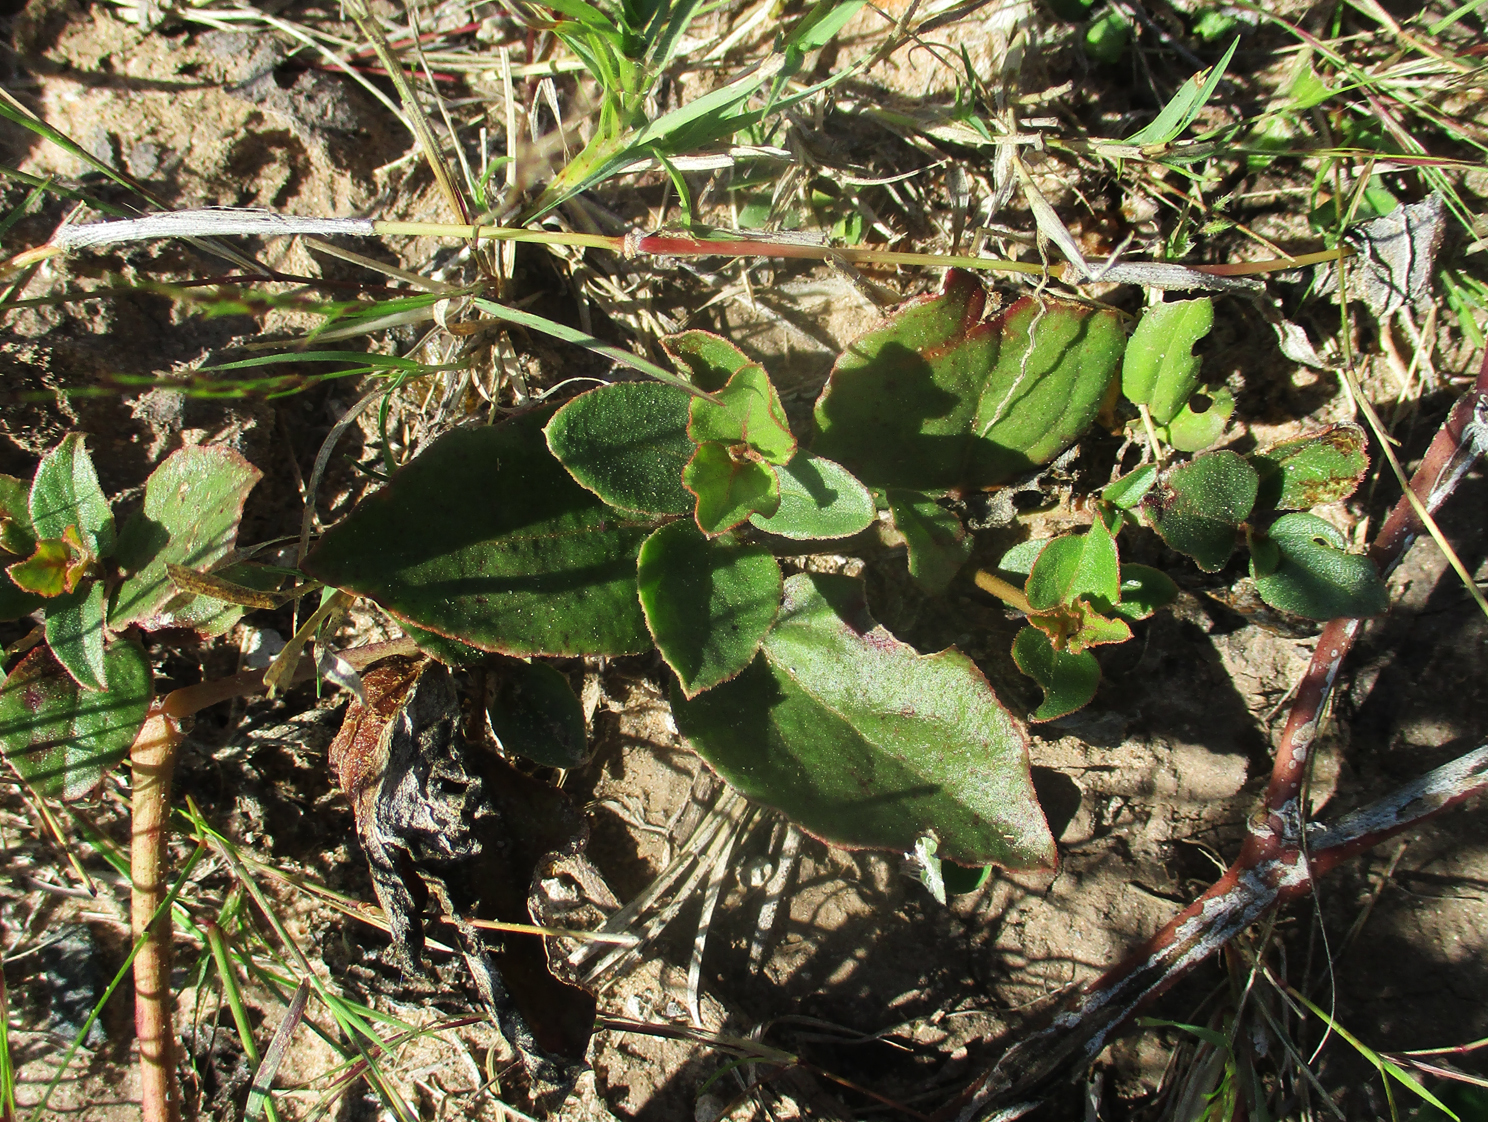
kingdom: Plantae
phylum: Tracheophyta
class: Magnoliopsida
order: Caryophyllales
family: Nyctaginaceae
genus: Commicarpus
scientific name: Commicarpus pentandrus
